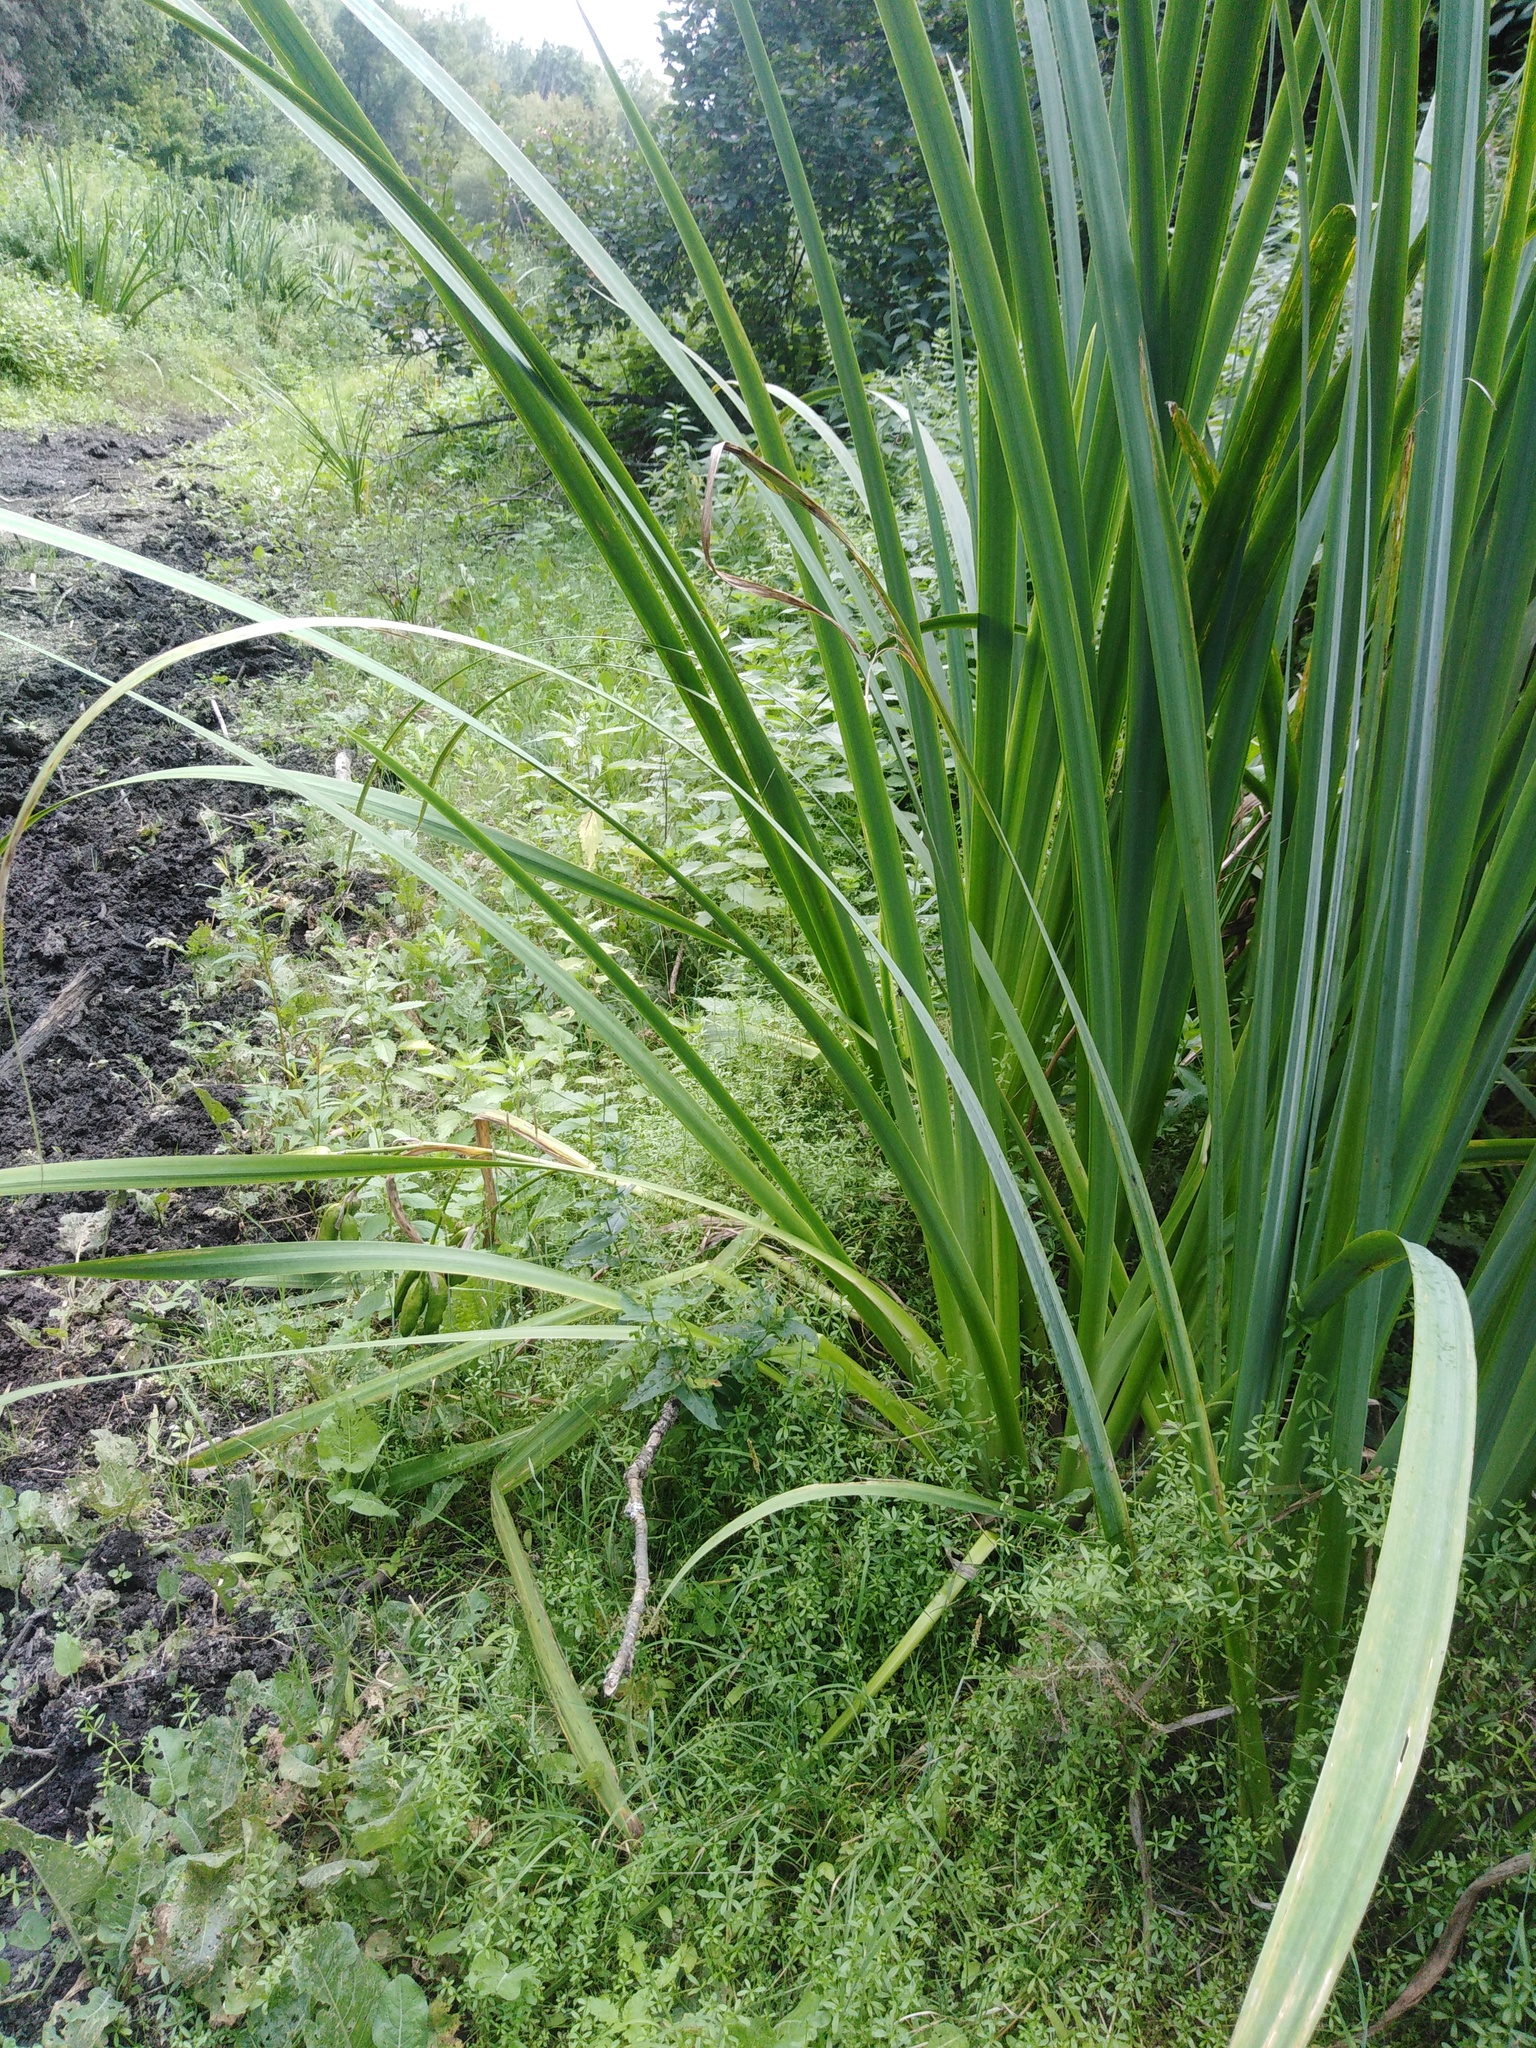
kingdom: Plantae
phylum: Tracheophyta
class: Liliopsida
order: Asparagales
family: Iridaceae
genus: Iris
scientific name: Iris pseudacorus
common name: Yellow flag
